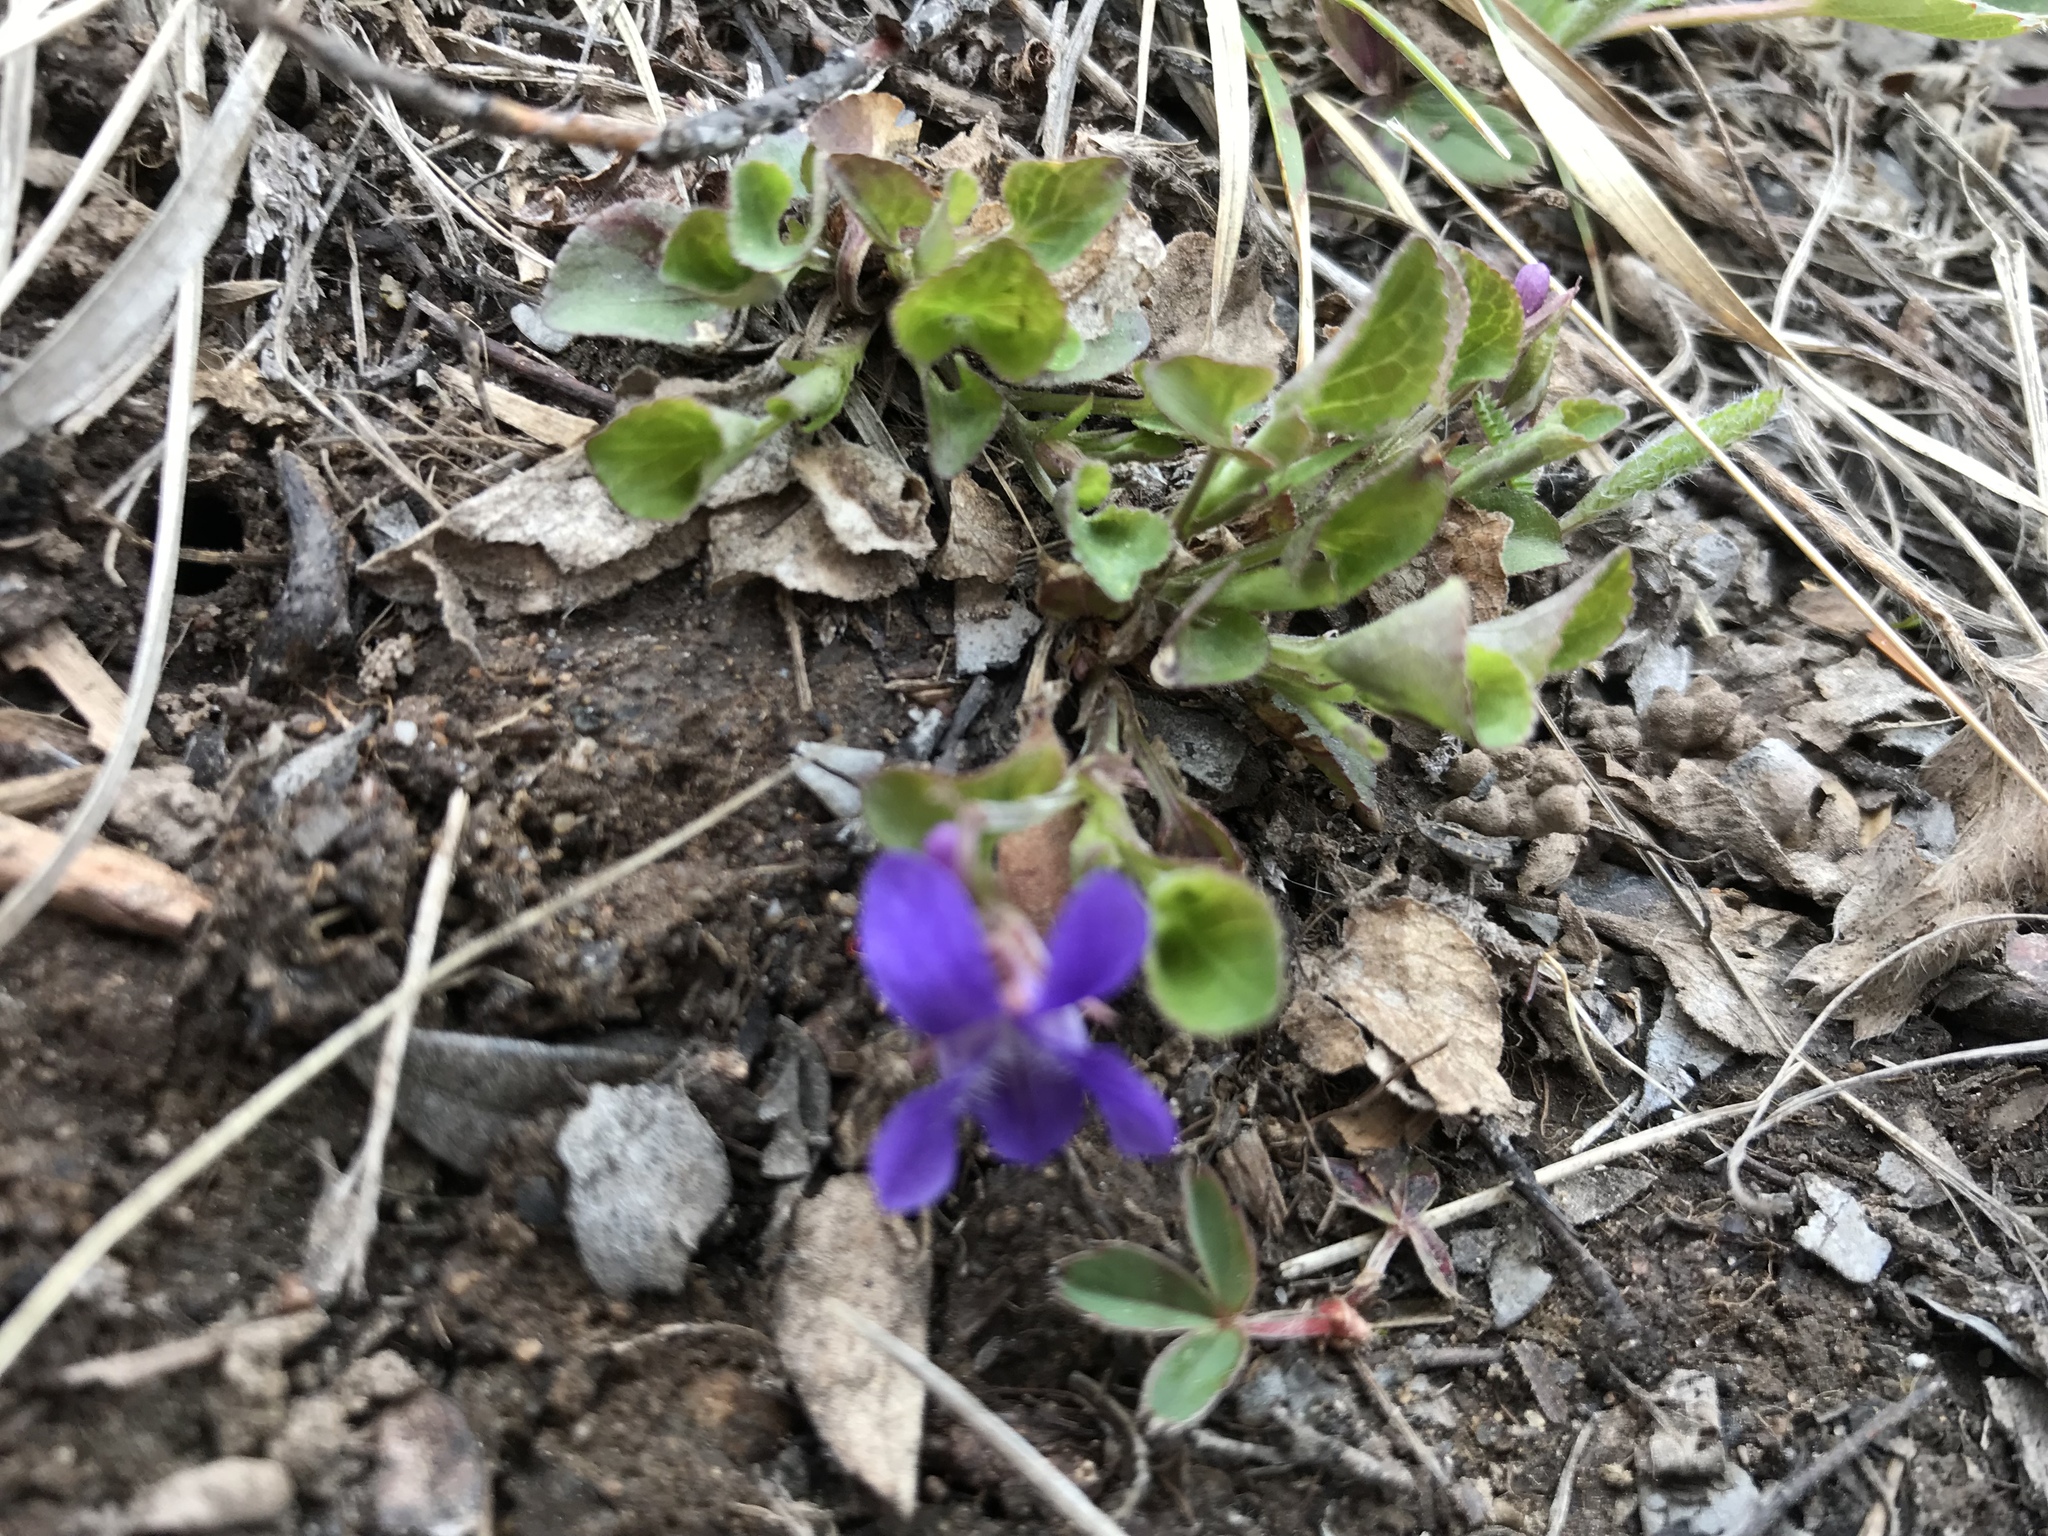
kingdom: Plantae
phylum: Tracheophyta
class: Magnoliopsida
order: Malpighiales
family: Violaceae
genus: Viola
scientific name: Viola adunca
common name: Sand violet
